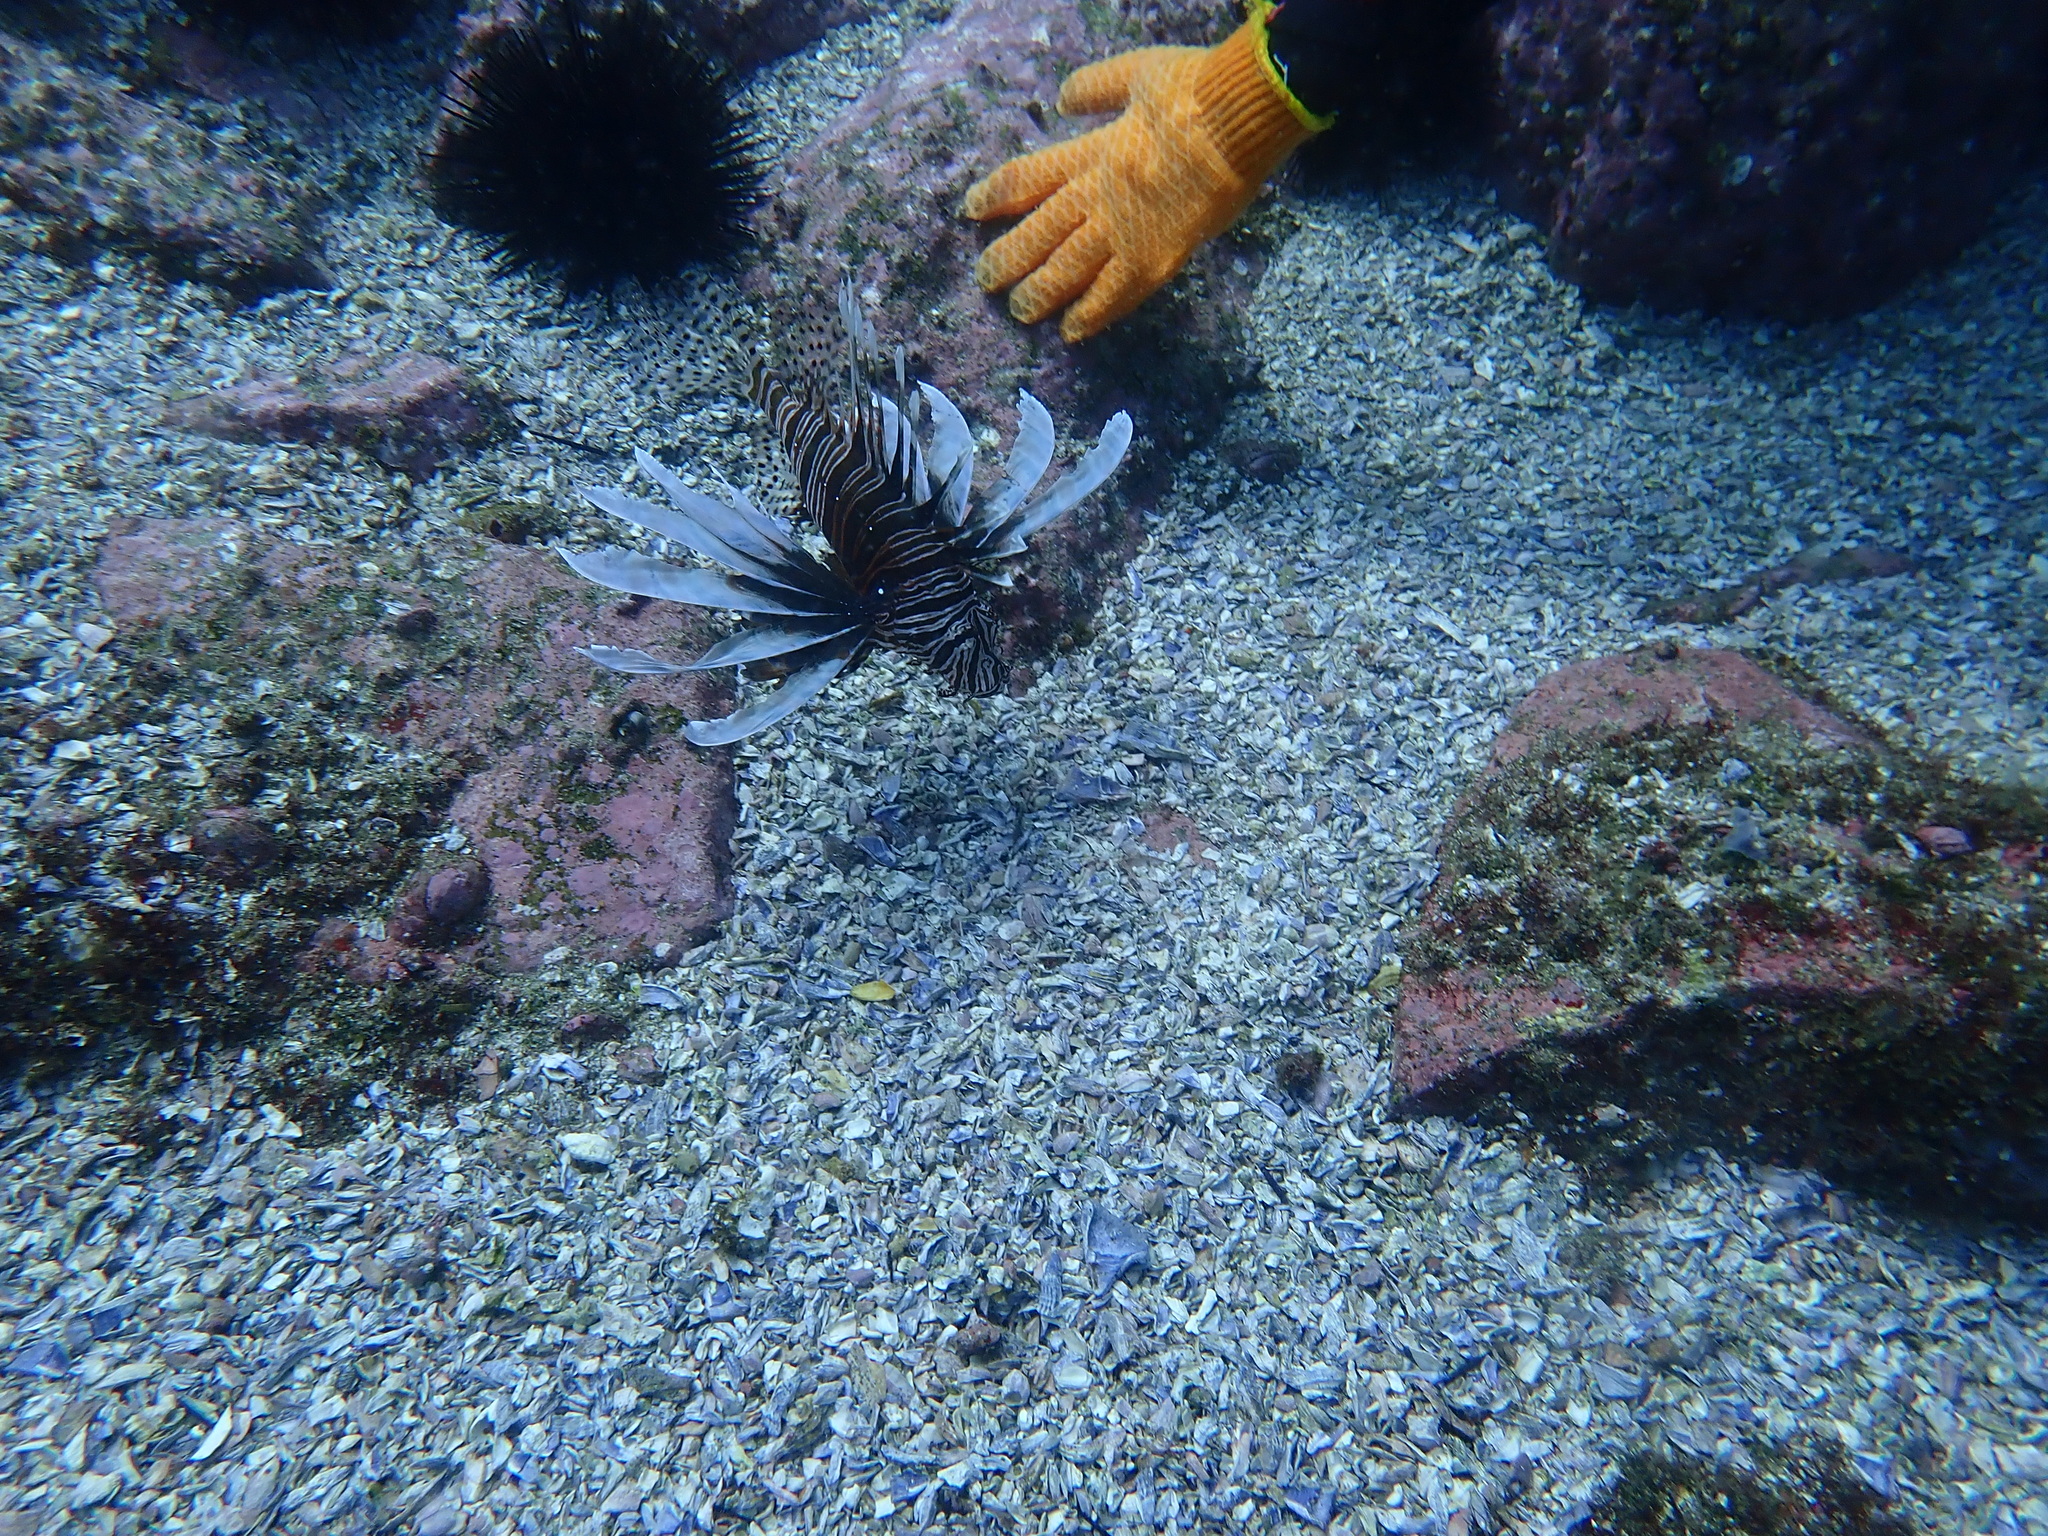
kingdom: Animalia
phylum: Chordata
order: Scorpaeniformes
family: Scorpaenidae
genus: Pterois
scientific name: Pterois volitans
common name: Lionfish
